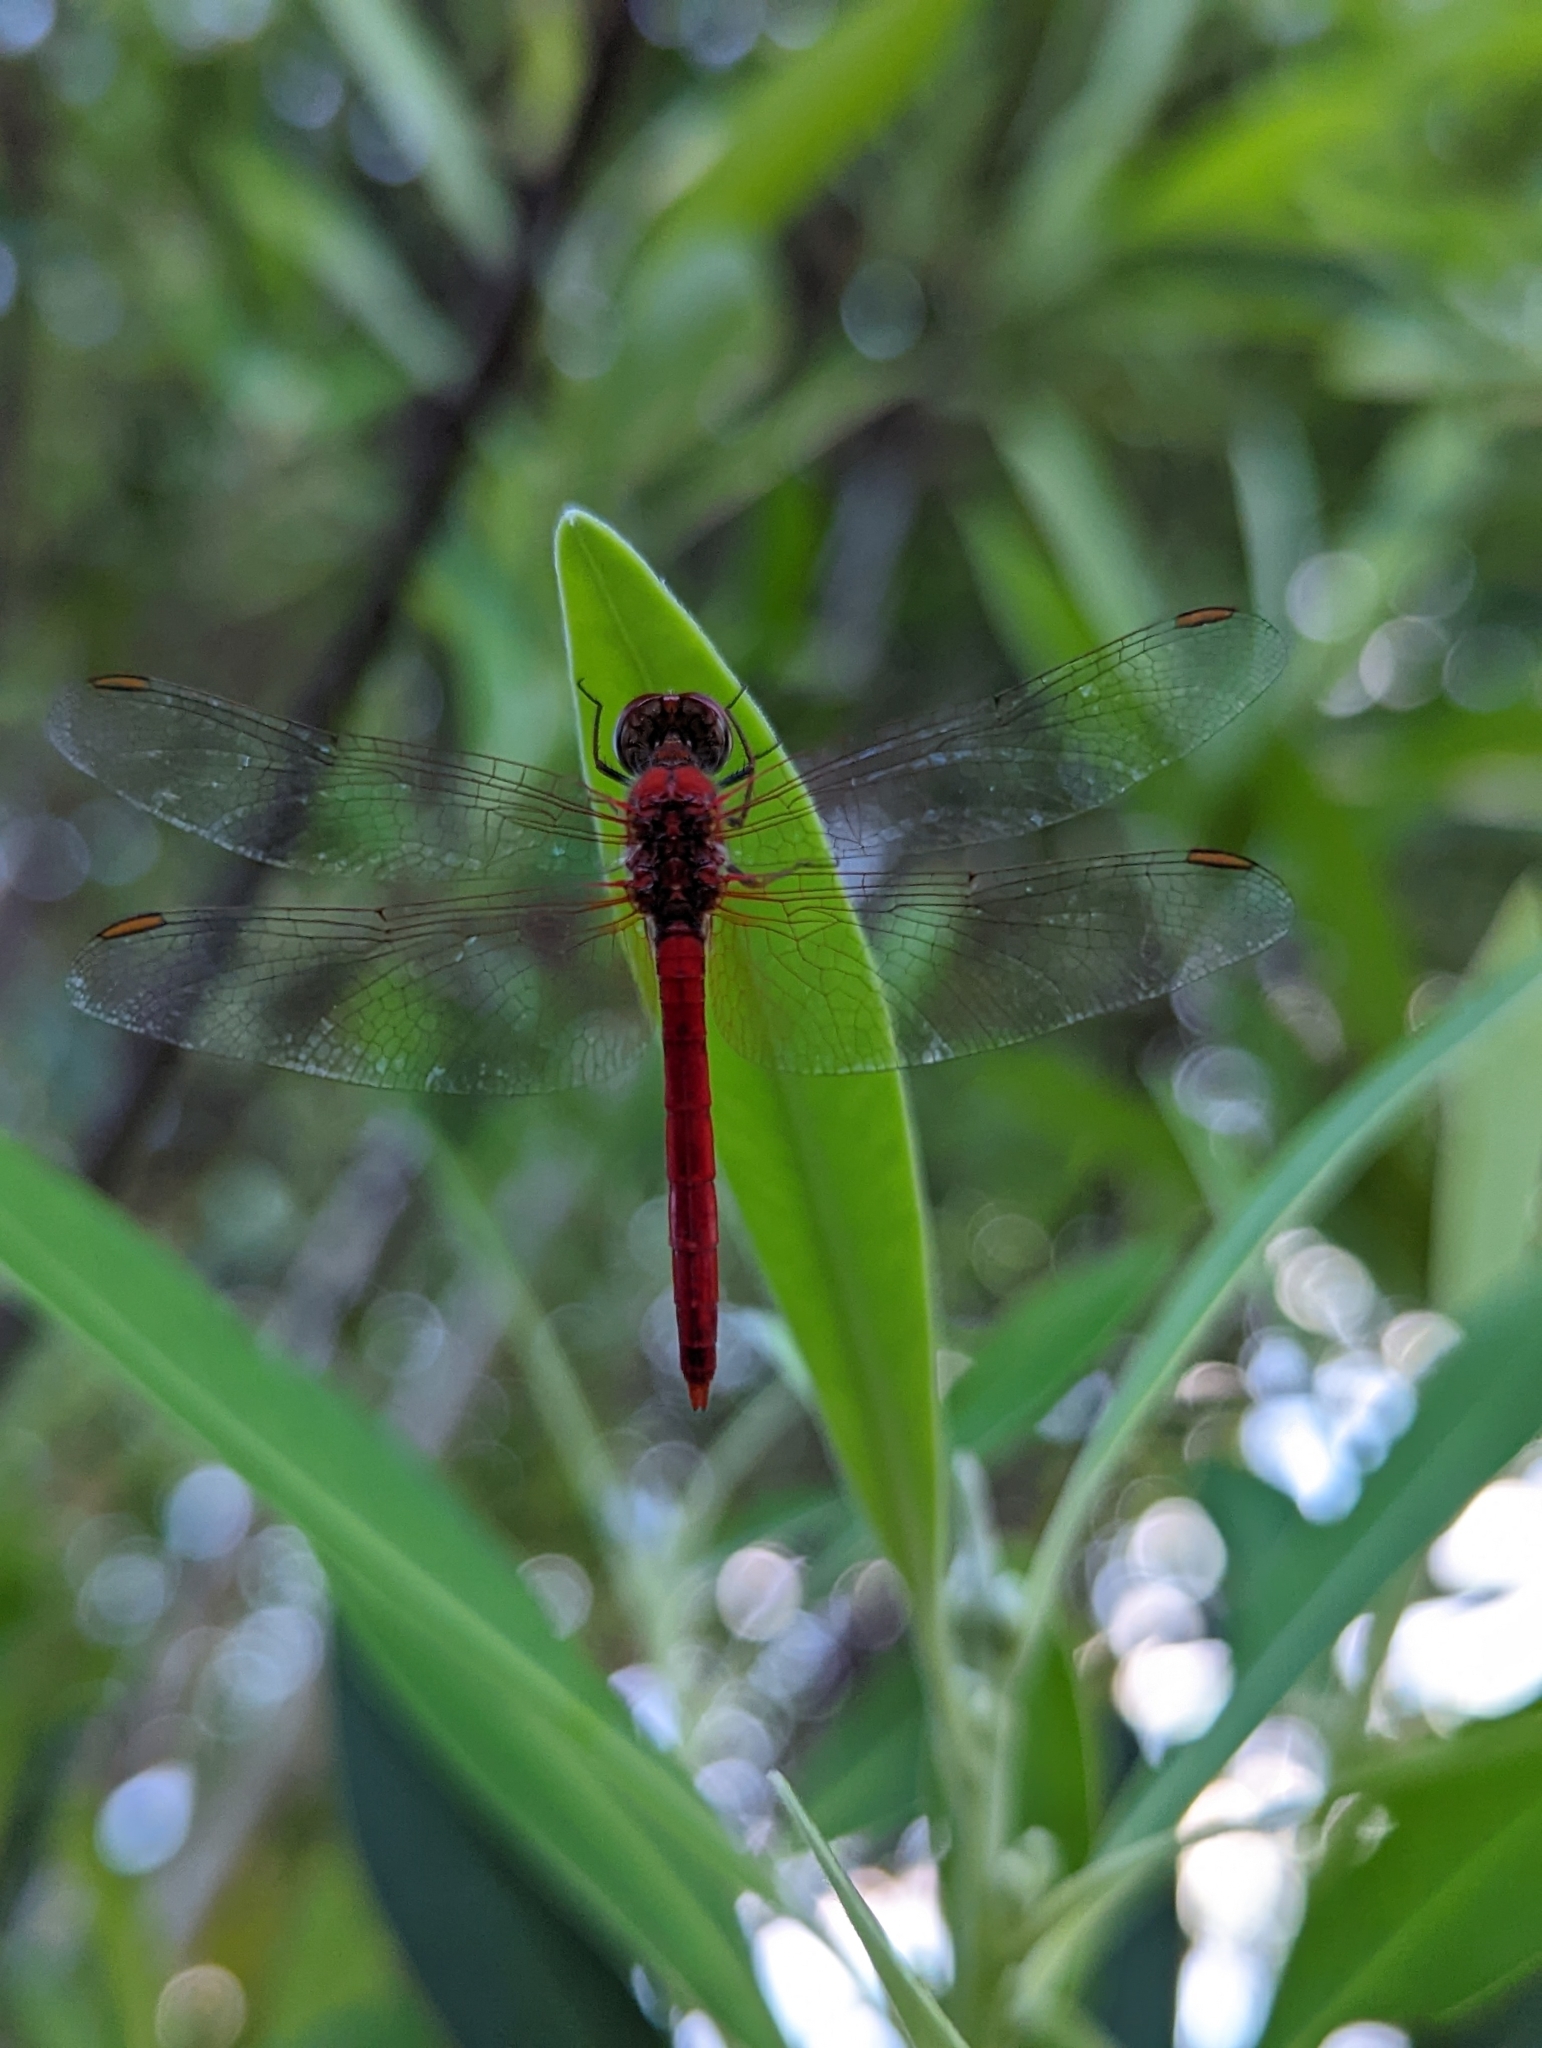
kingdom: Animalia
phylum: Arthropoda
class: Insecta
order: Odonata
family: Libellulidae
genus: Diplacodes
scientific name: Diplacodes haematodes
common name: Scarlet percher
